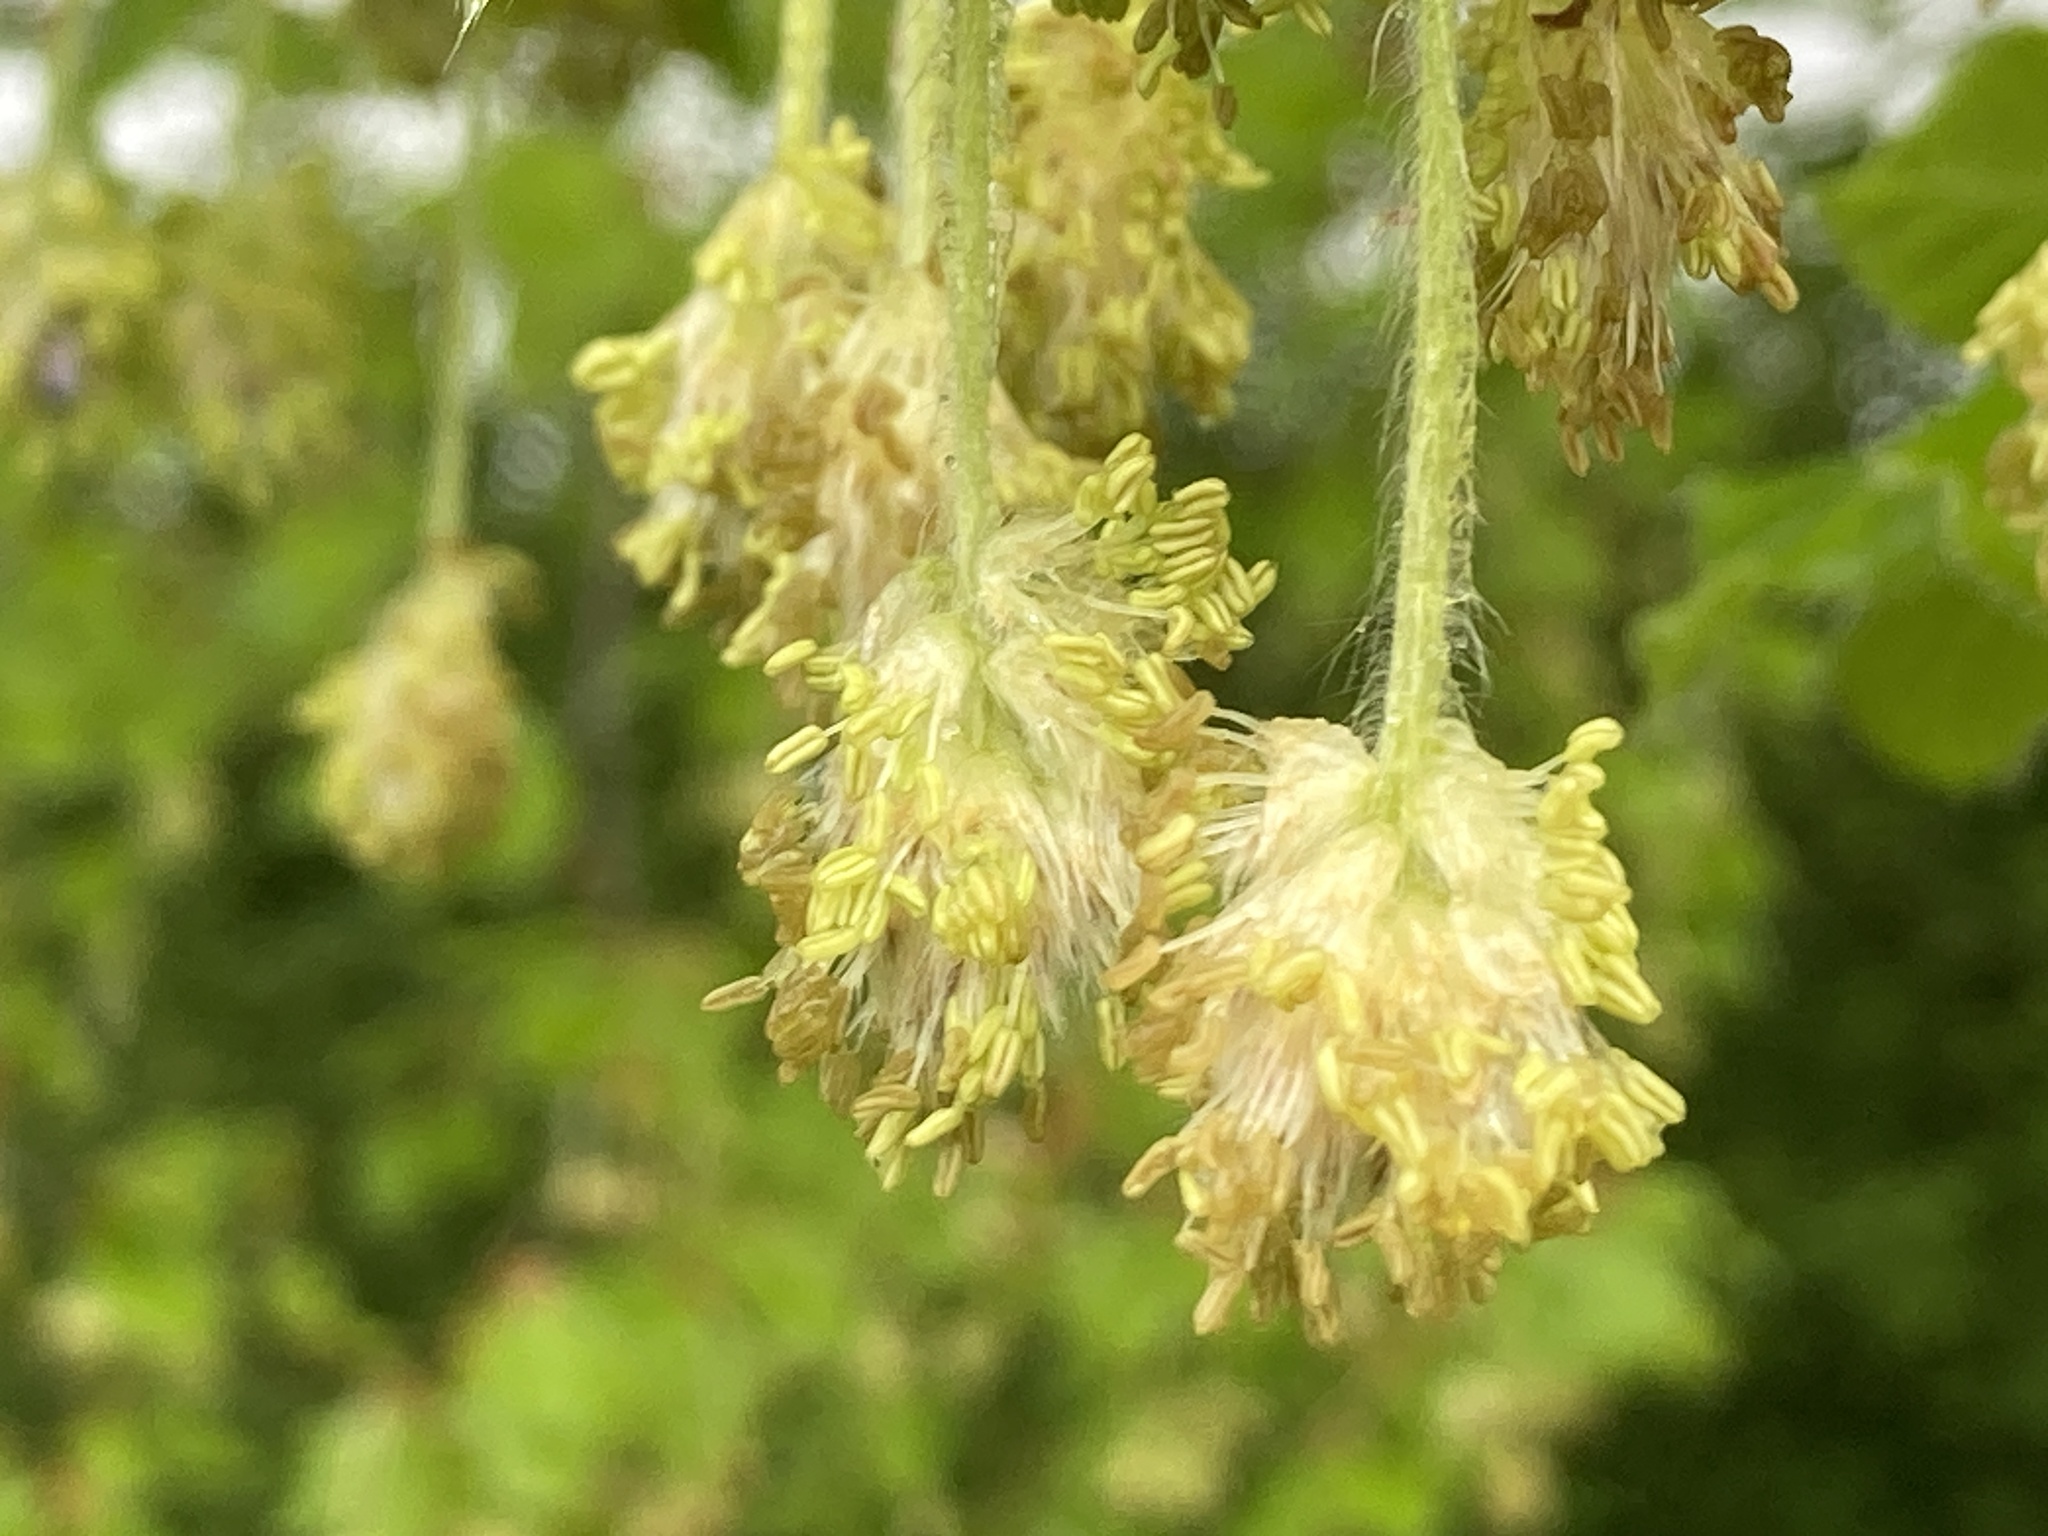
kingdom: Plantae
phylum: Tracheophyta
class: Magnoliopsida
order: Fagales
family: Fagaceae
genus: Fagus
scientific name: Fagus sylvatica
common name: Beech
